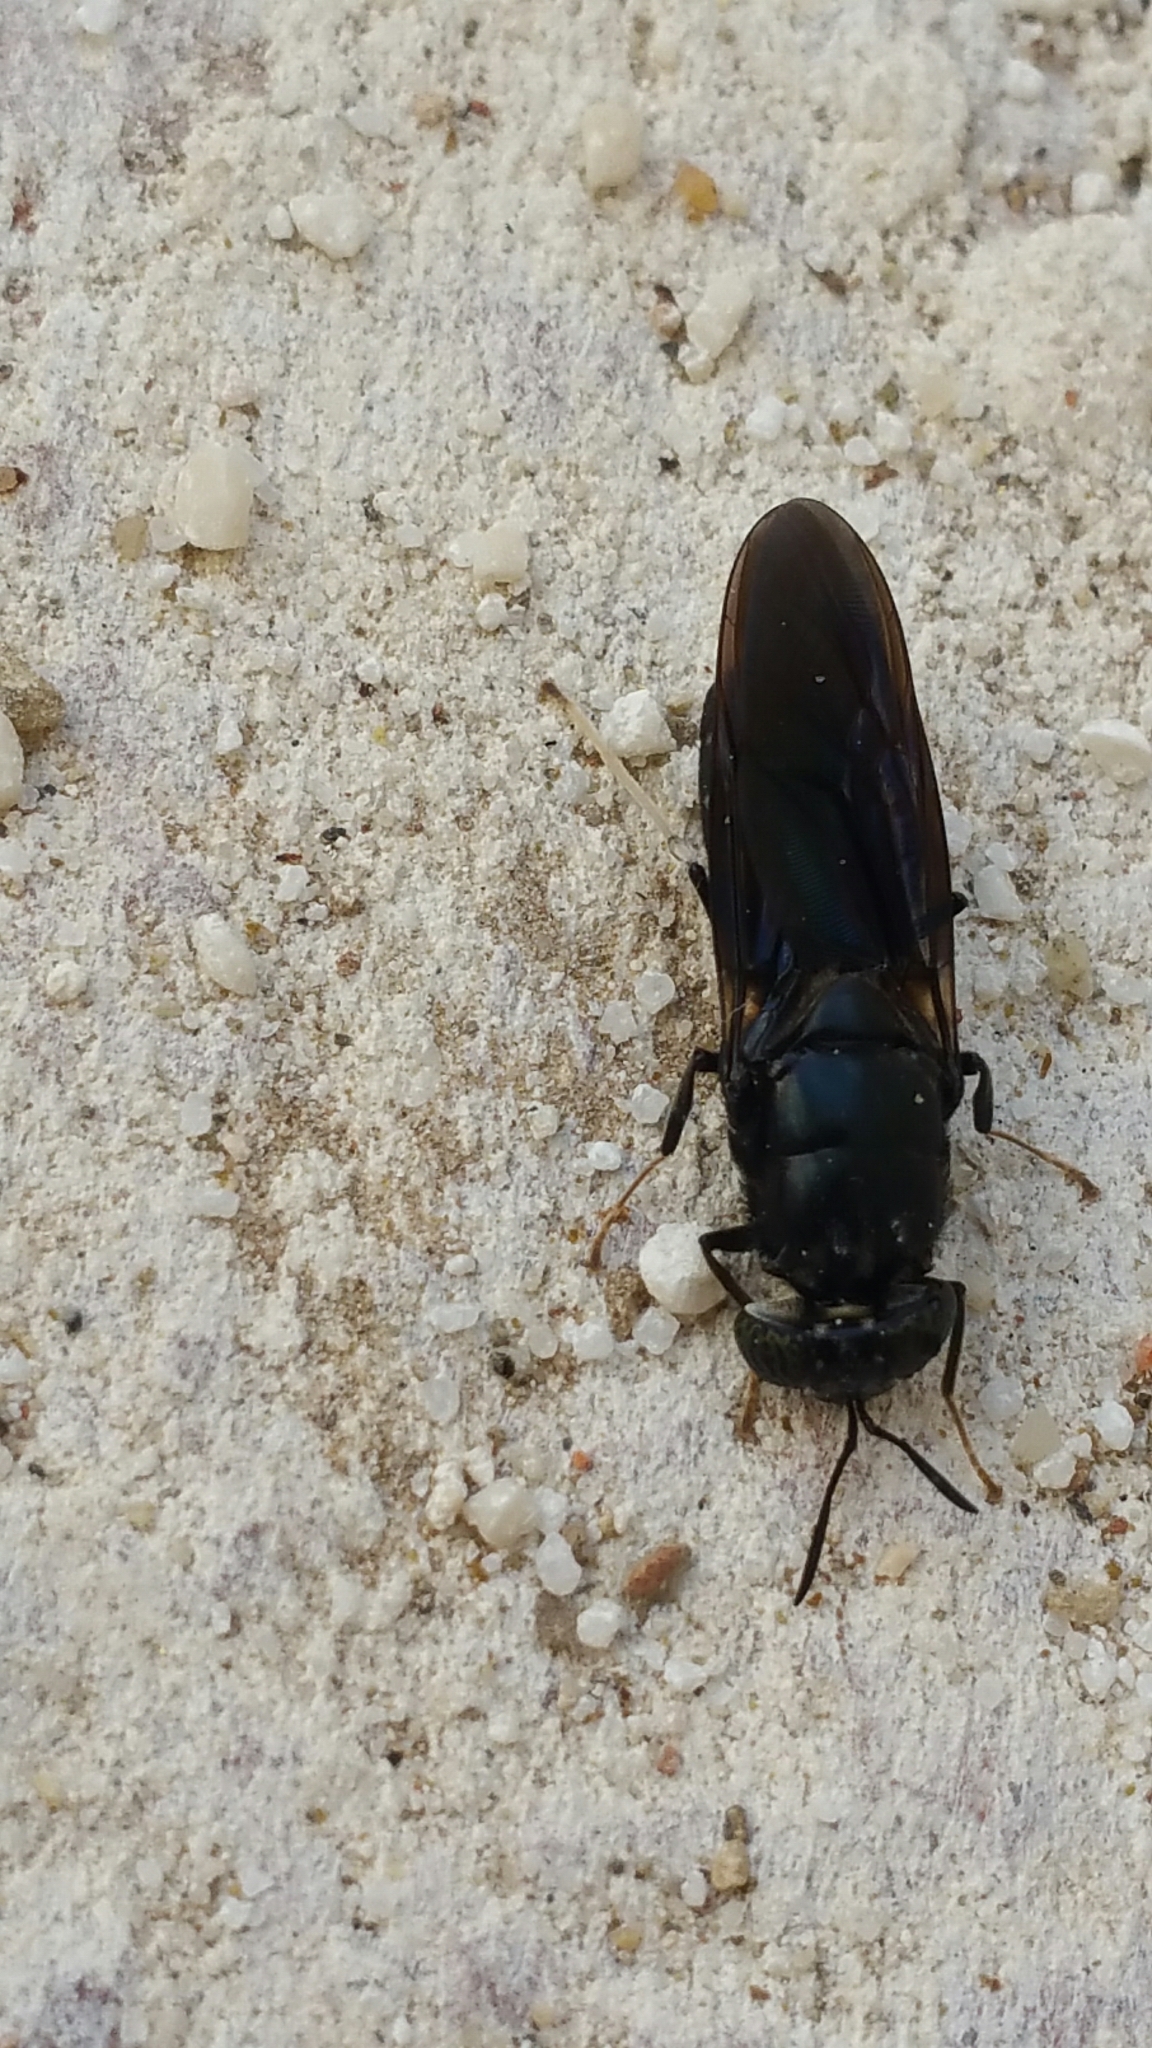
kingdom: Animalia
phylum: Arthropoda
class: Insecta
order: Diptera
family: Stratiomyidae
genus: Hermetia
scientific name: Hermetia illucens
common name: Black soldier fly
